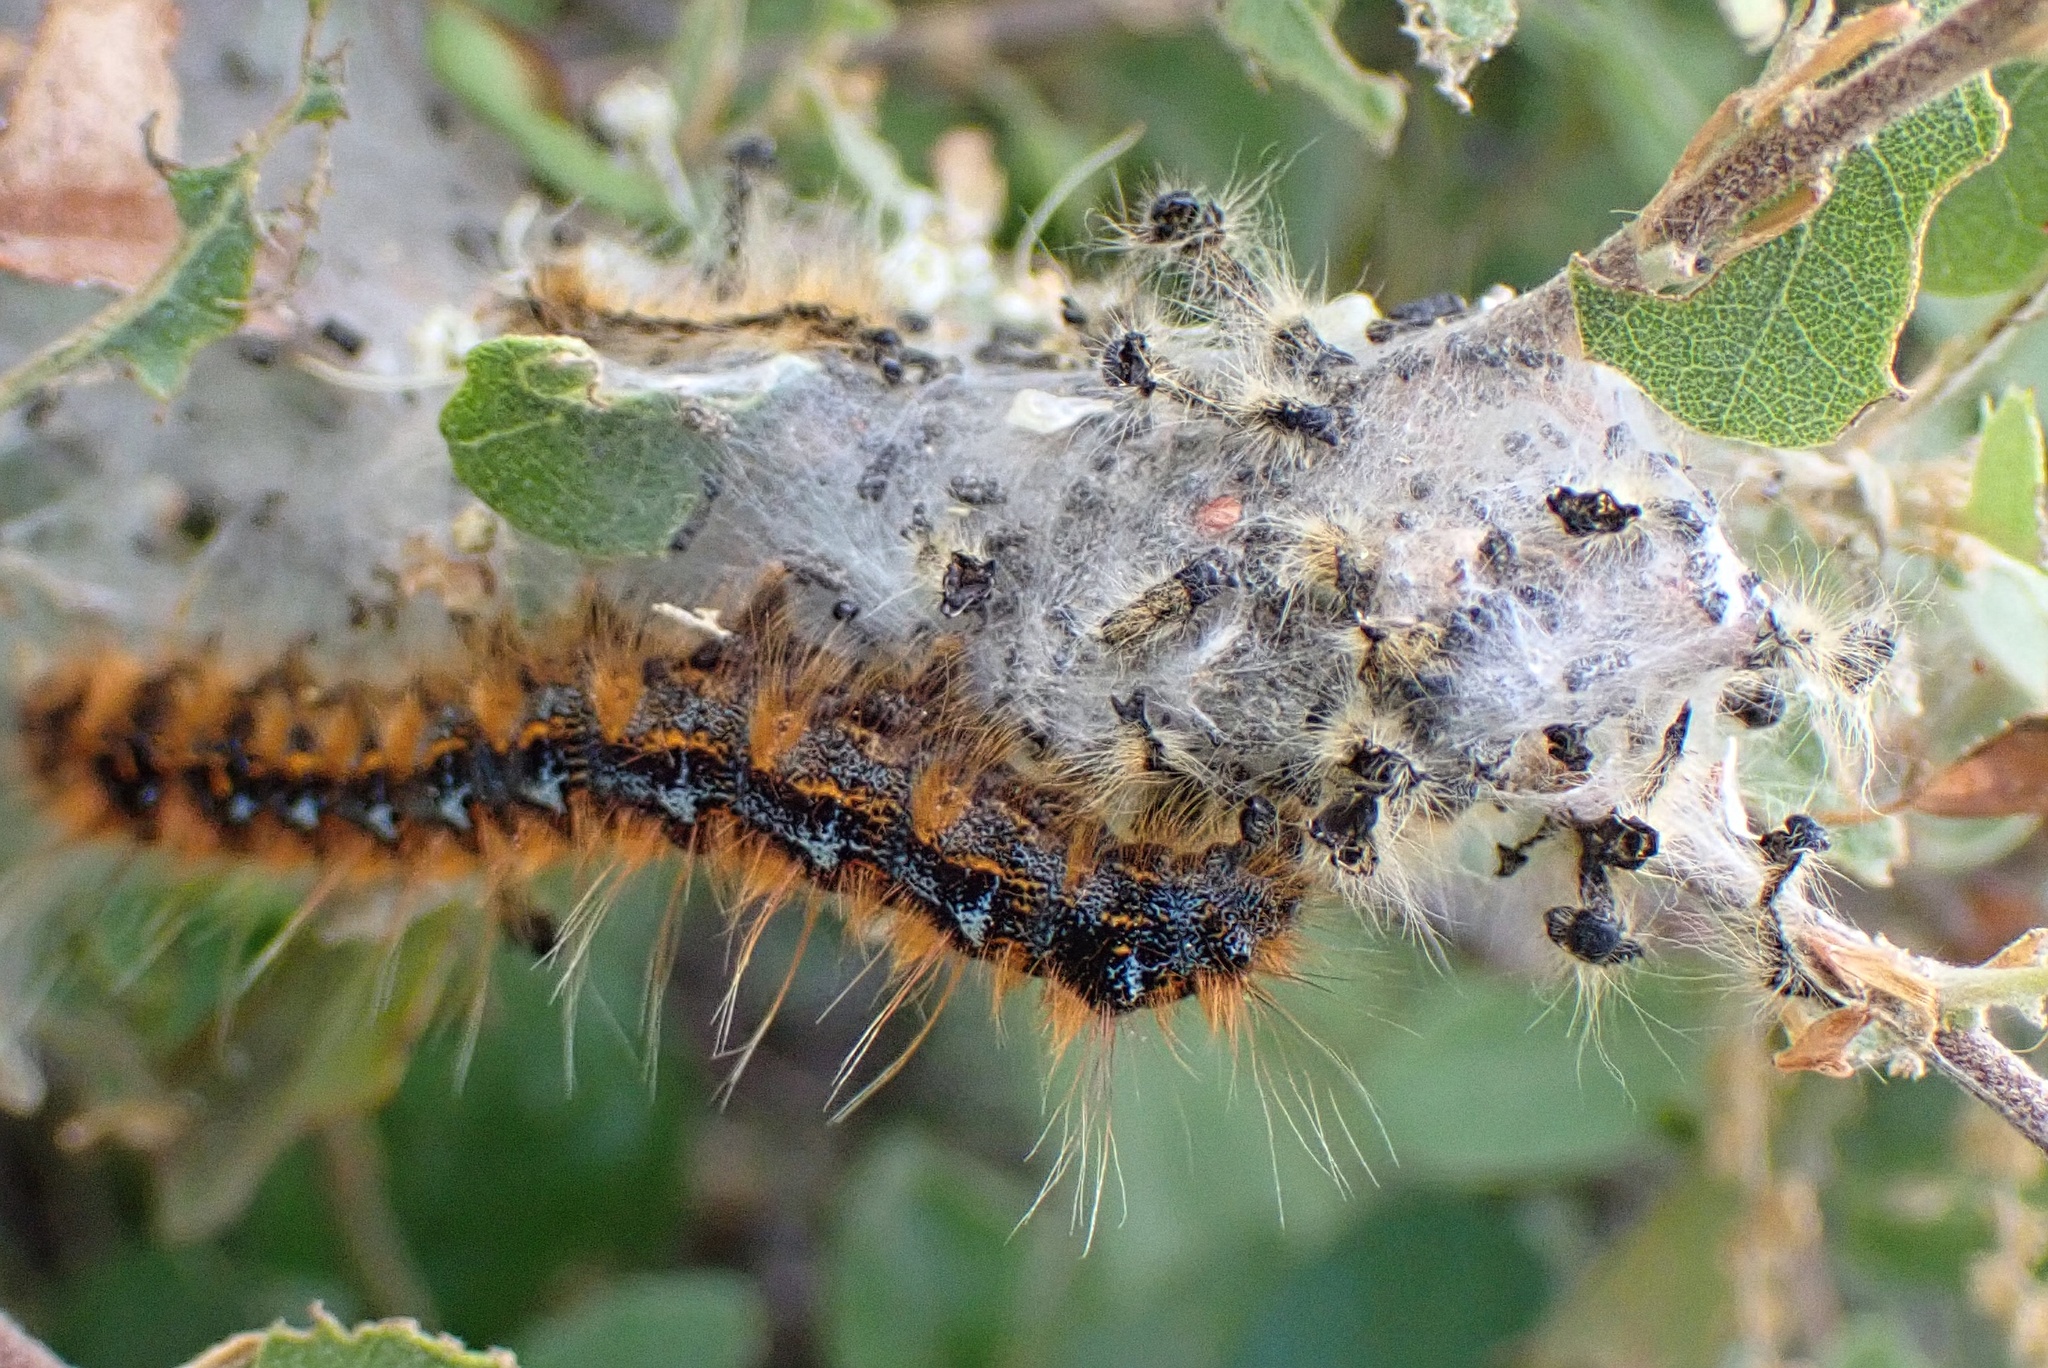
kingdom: Animalia
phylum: Arthropoda
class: Insecta
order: Lepidoptera
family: Lasiocampidae
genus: Malacosoma
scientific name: Malacosoma constricta
